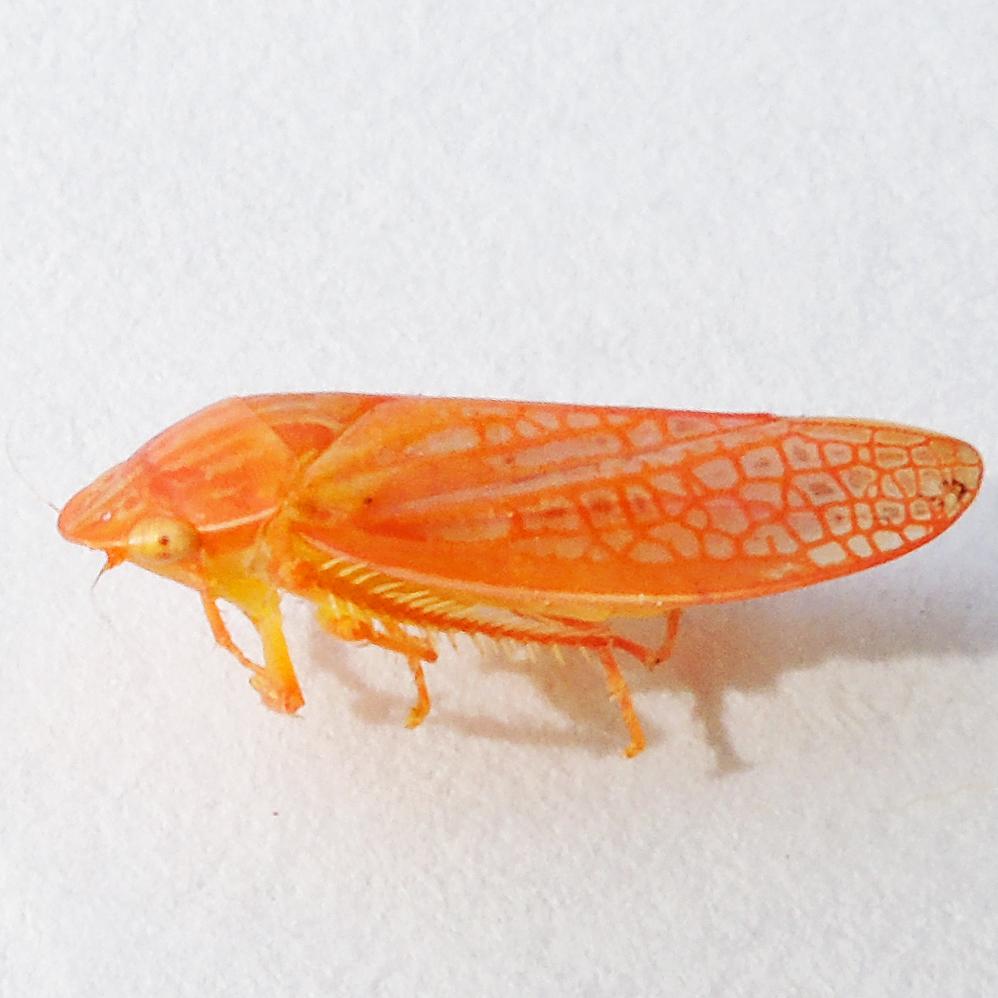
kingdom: Animalia
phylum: Arthropoda
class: Insecta
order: Hemiptera
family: Cicadellidae
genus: Gyponana
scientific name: Gyponana gladia
